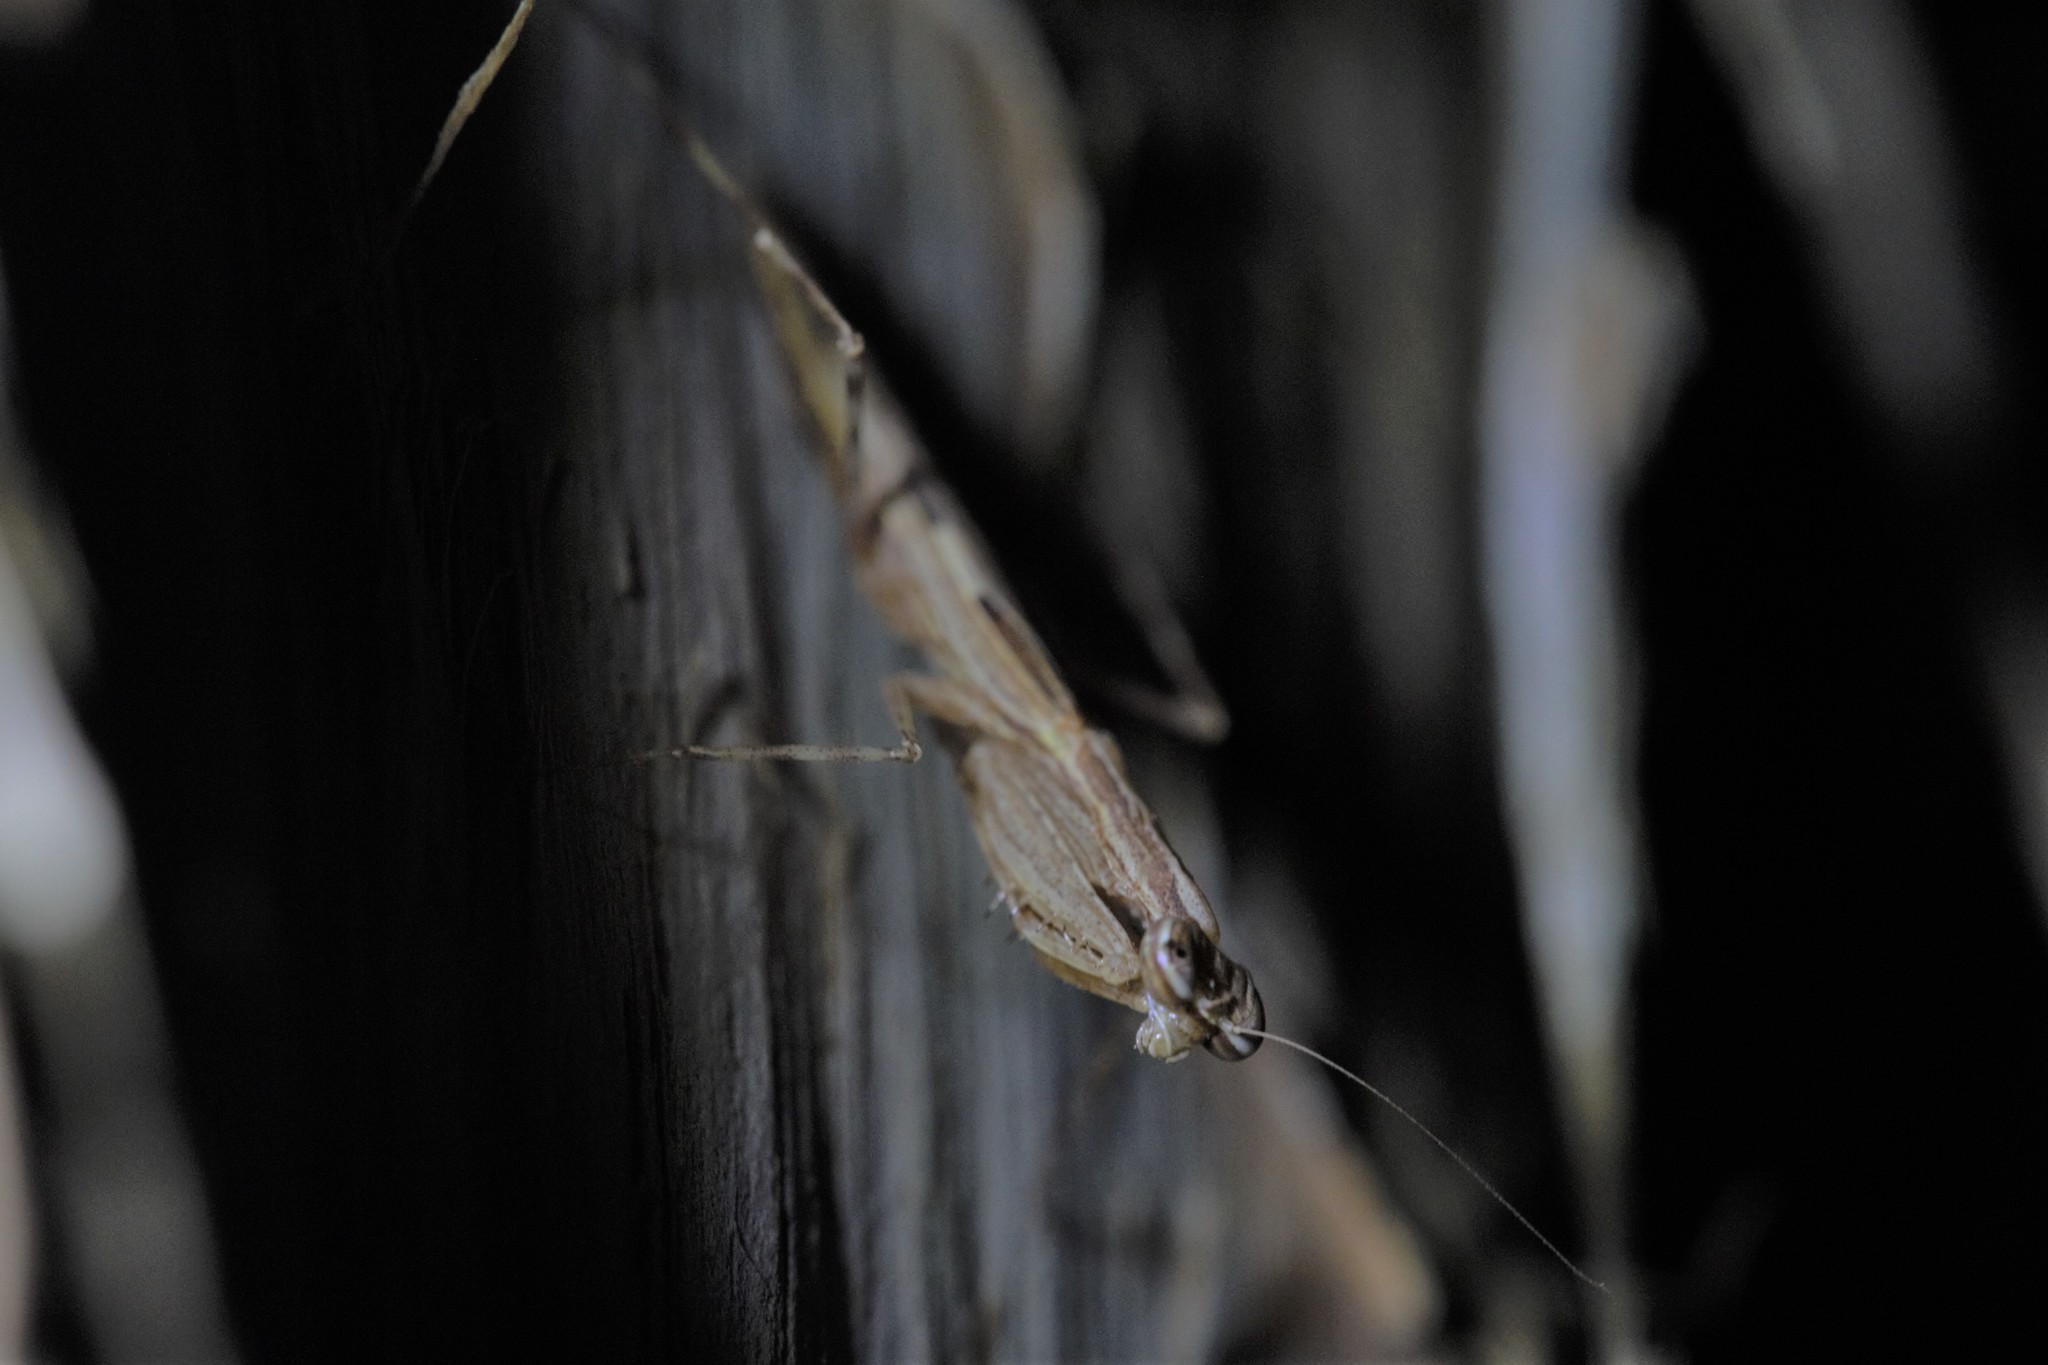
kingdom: Animalia
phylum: Arthropoda
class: Insecta
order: Mantodea
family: Nanomantidae
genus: Ima
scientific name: Ima fusca
